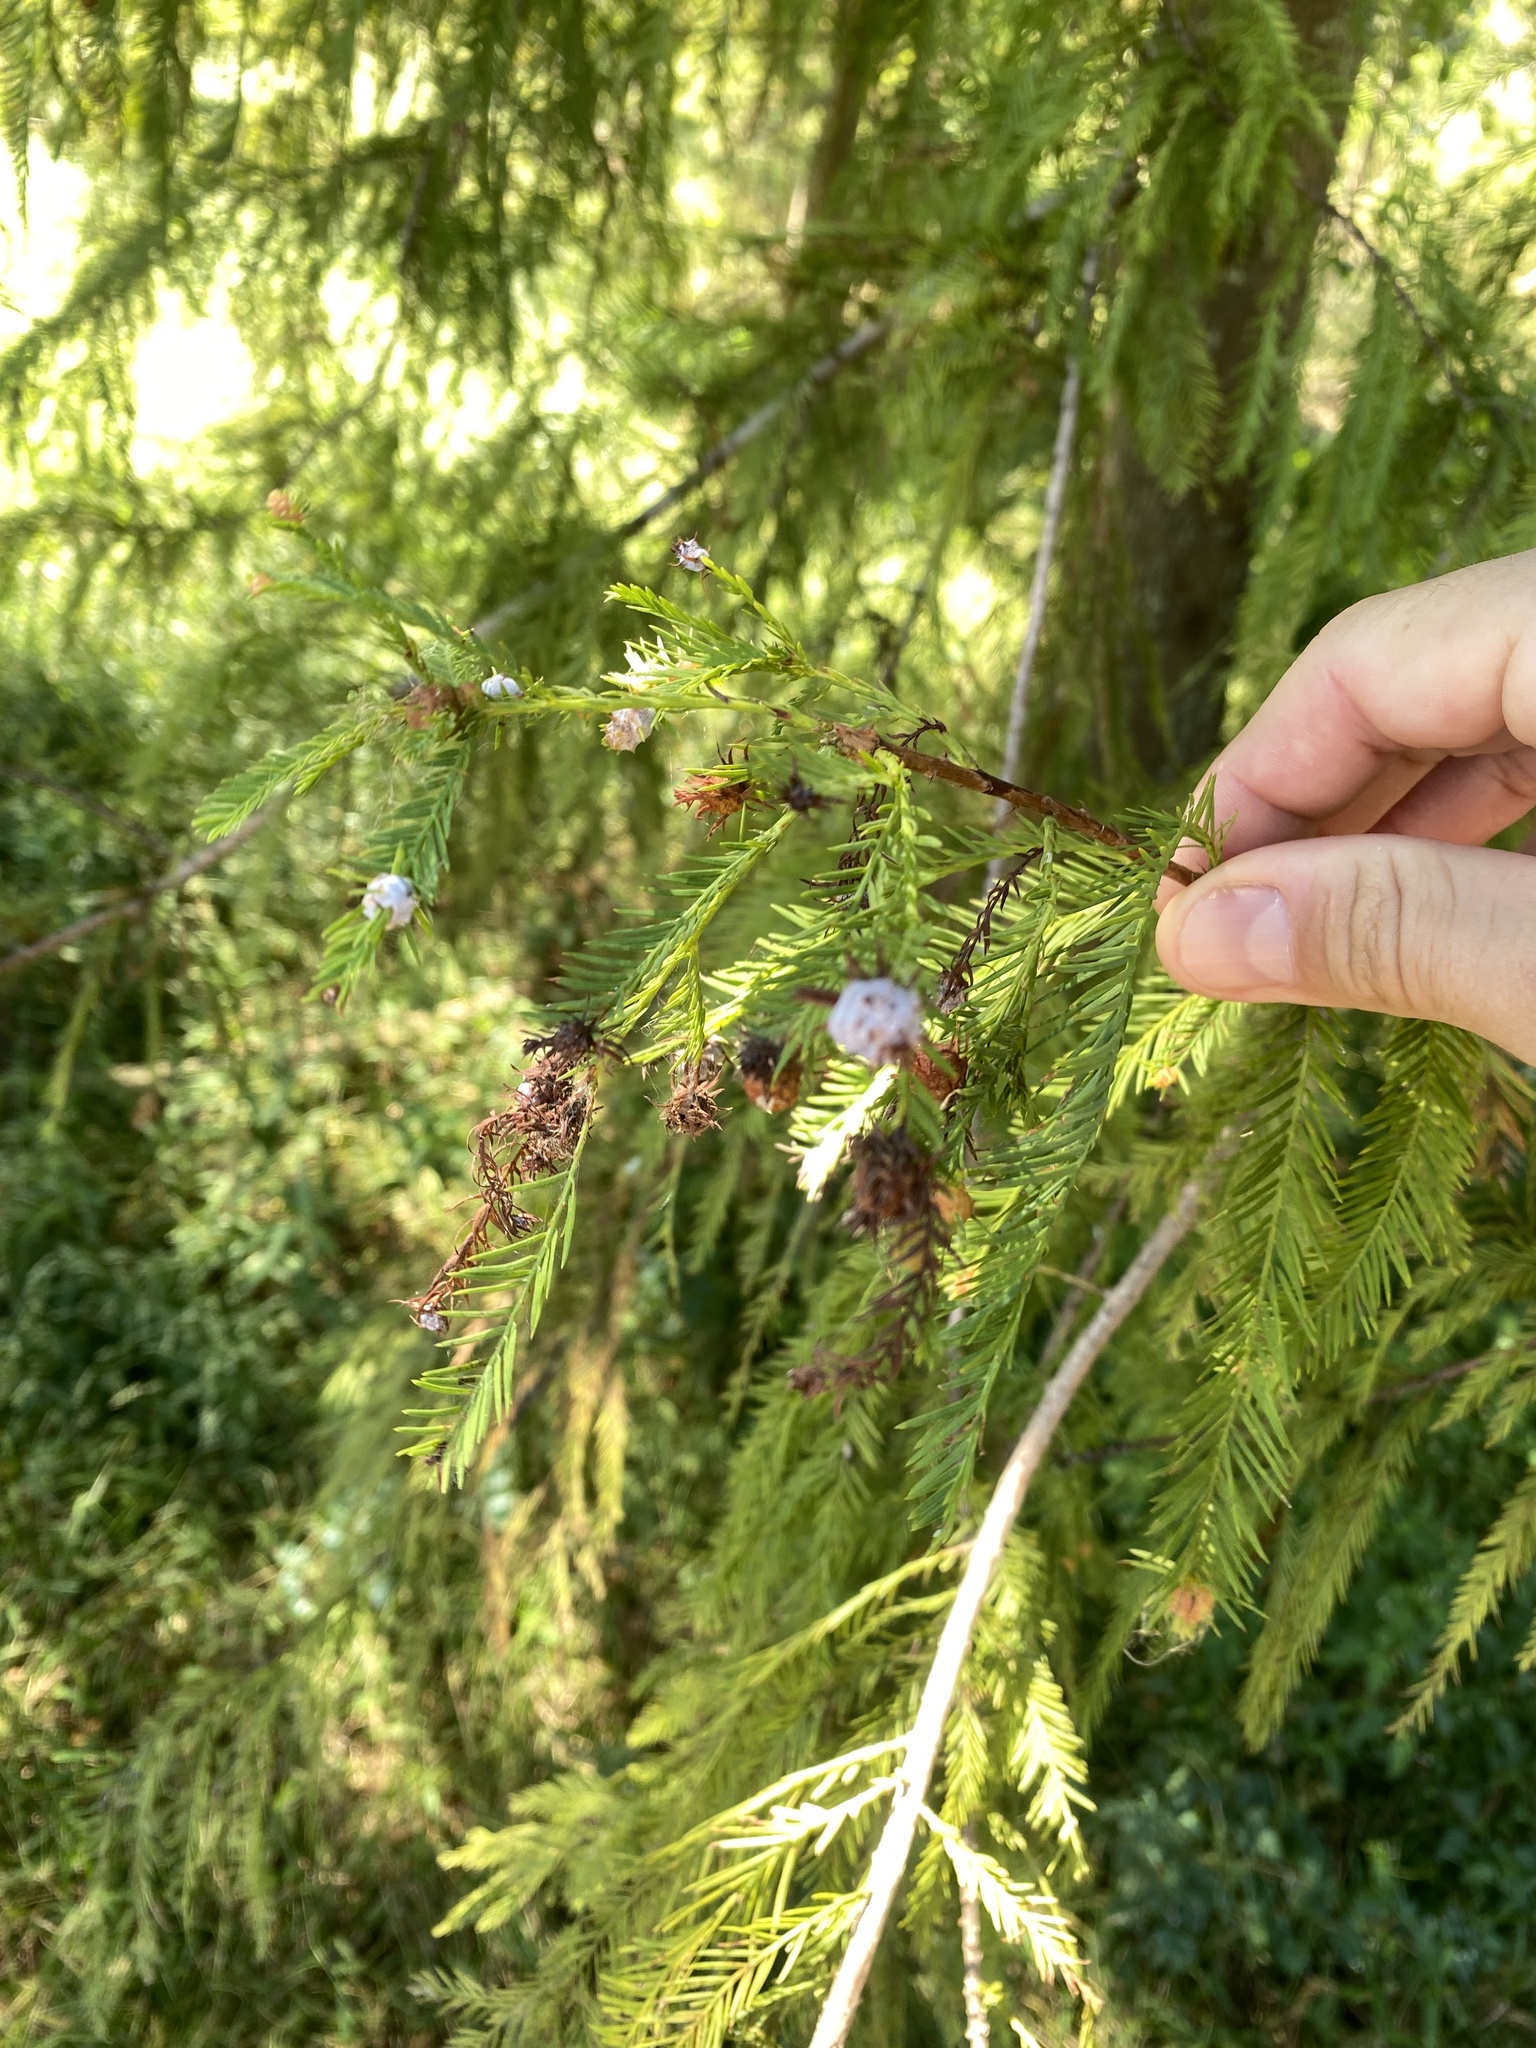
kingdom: Animalia
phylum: Arthropoda
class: Insecta
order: Diptera
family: Cecidomyiidae
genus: Taxodiomyia
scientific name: Taxodiomyia cupressiananassa
